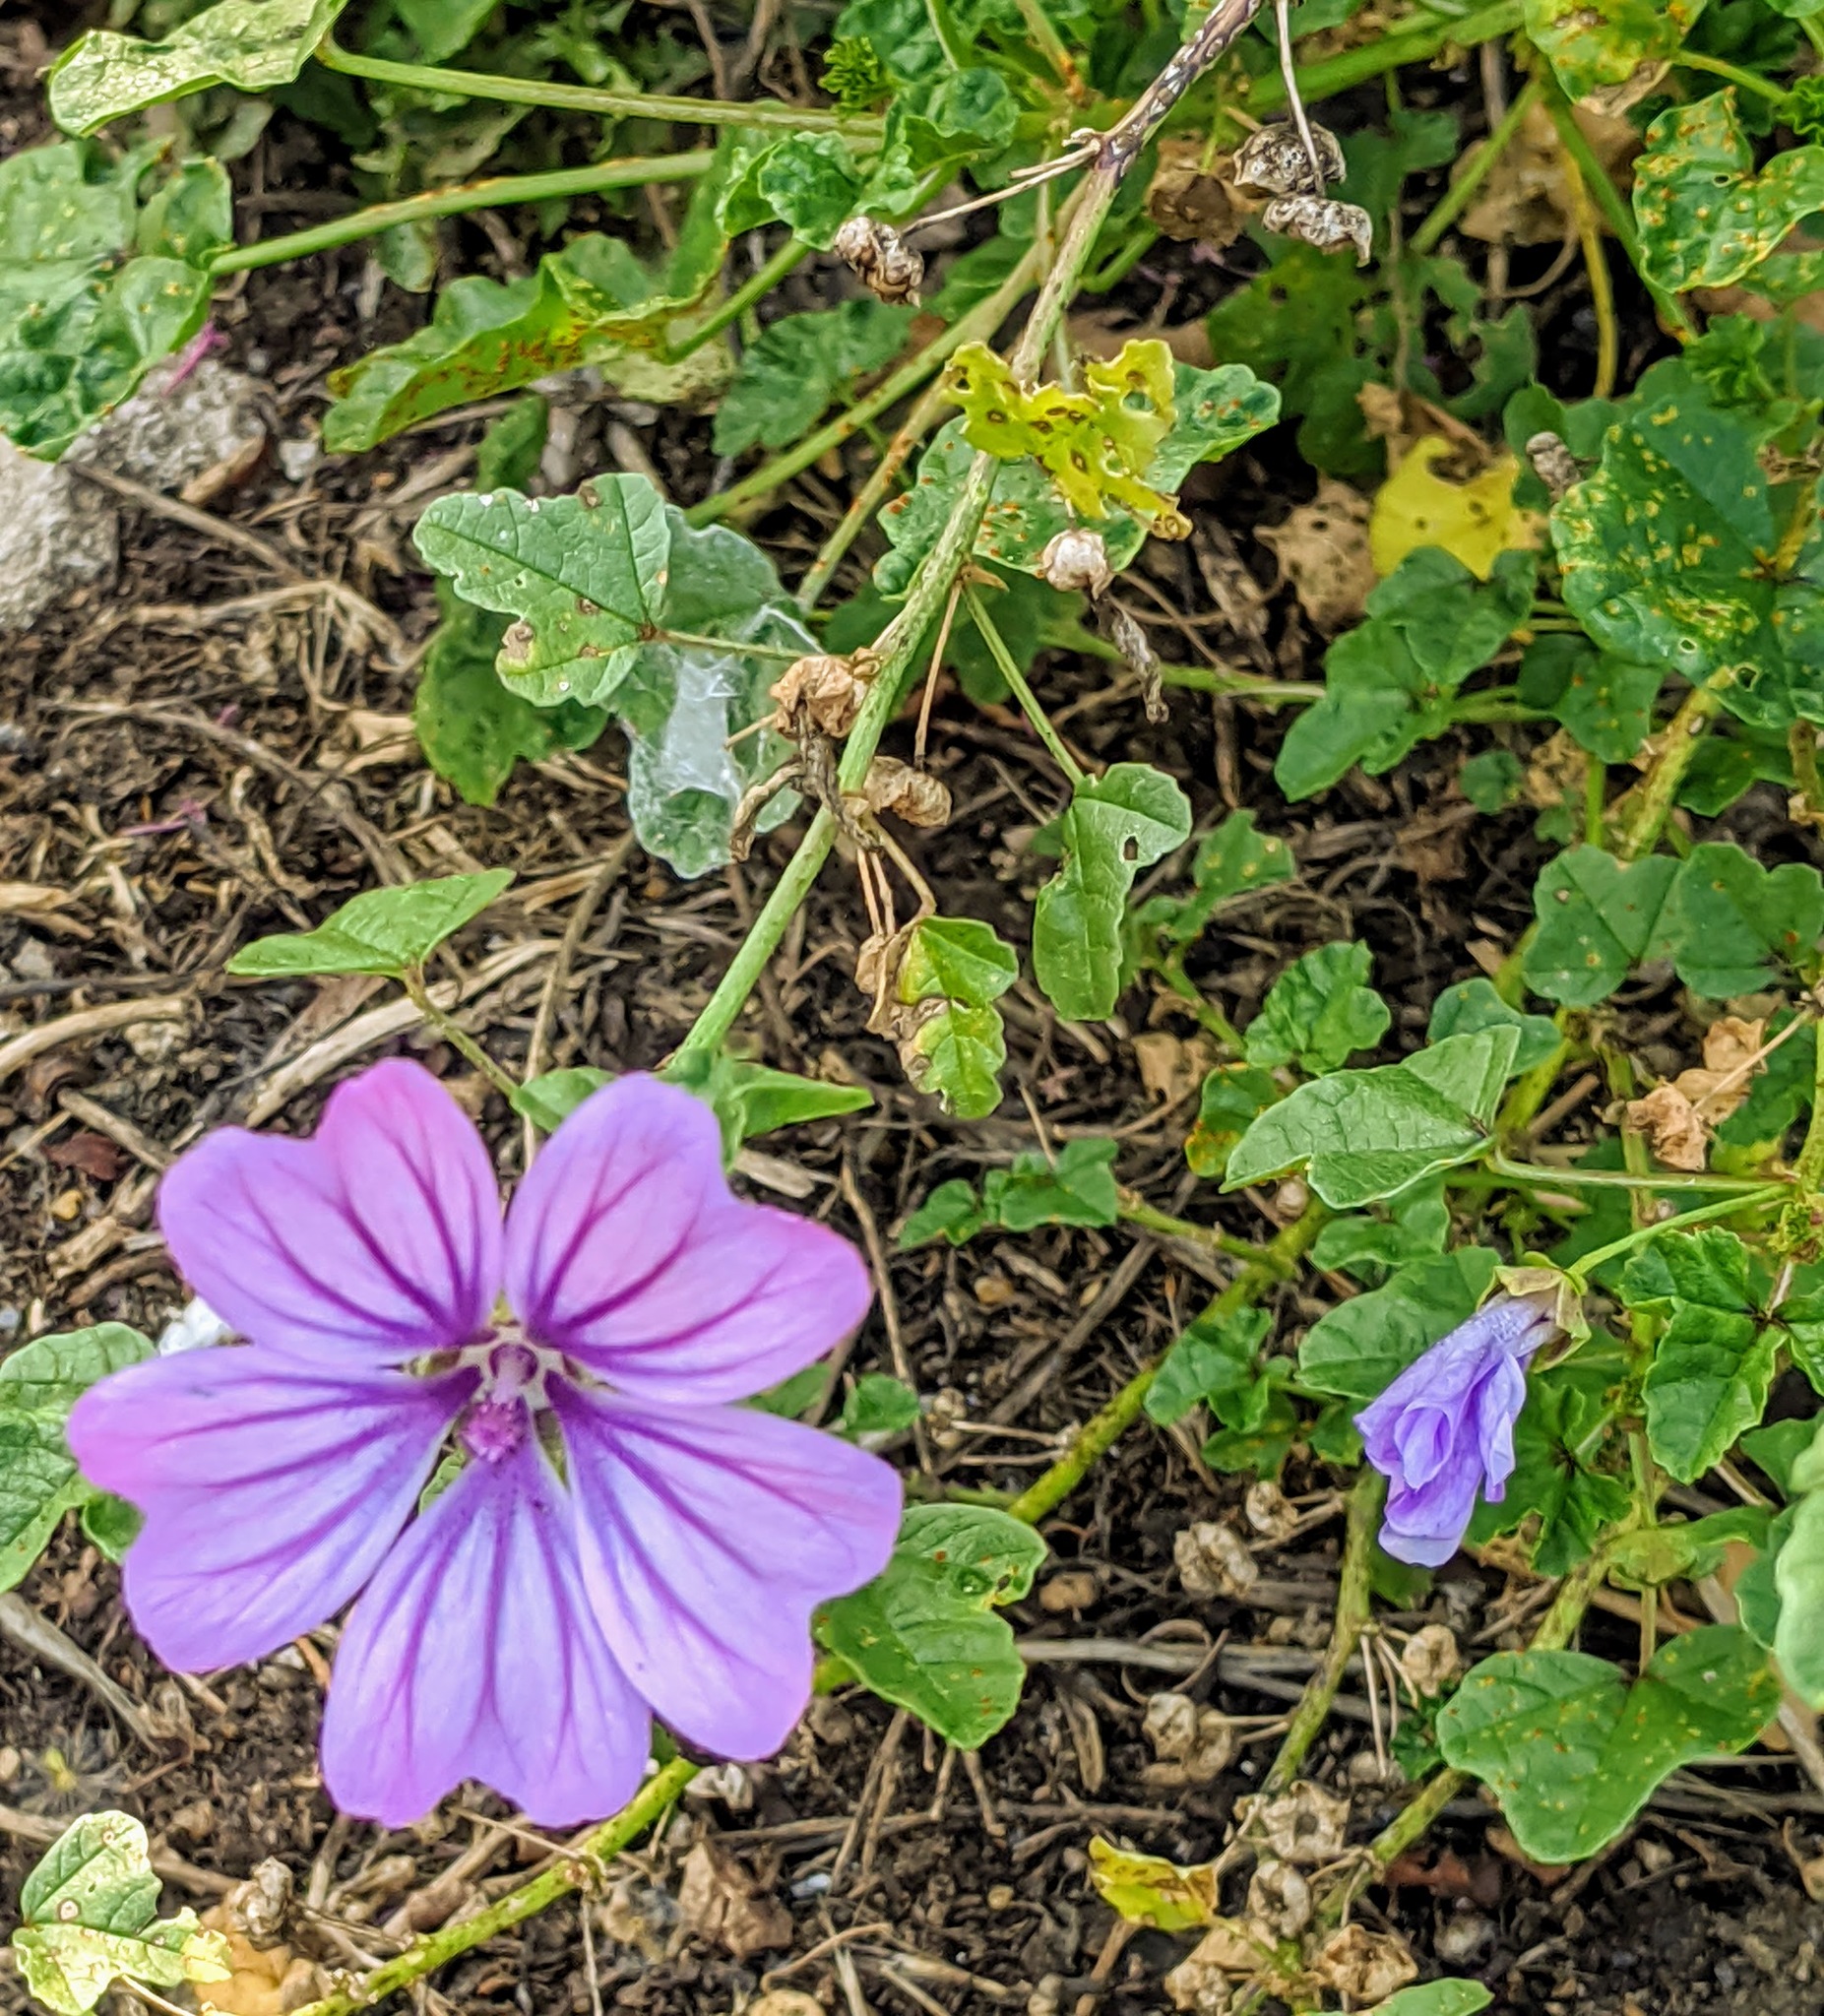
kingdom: Plantae
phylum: Tracheophyta
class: Magnoliopsida
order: Malvales
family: Malvaceae
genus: Malva
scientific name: Malva sylvestris
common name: Common mallow
